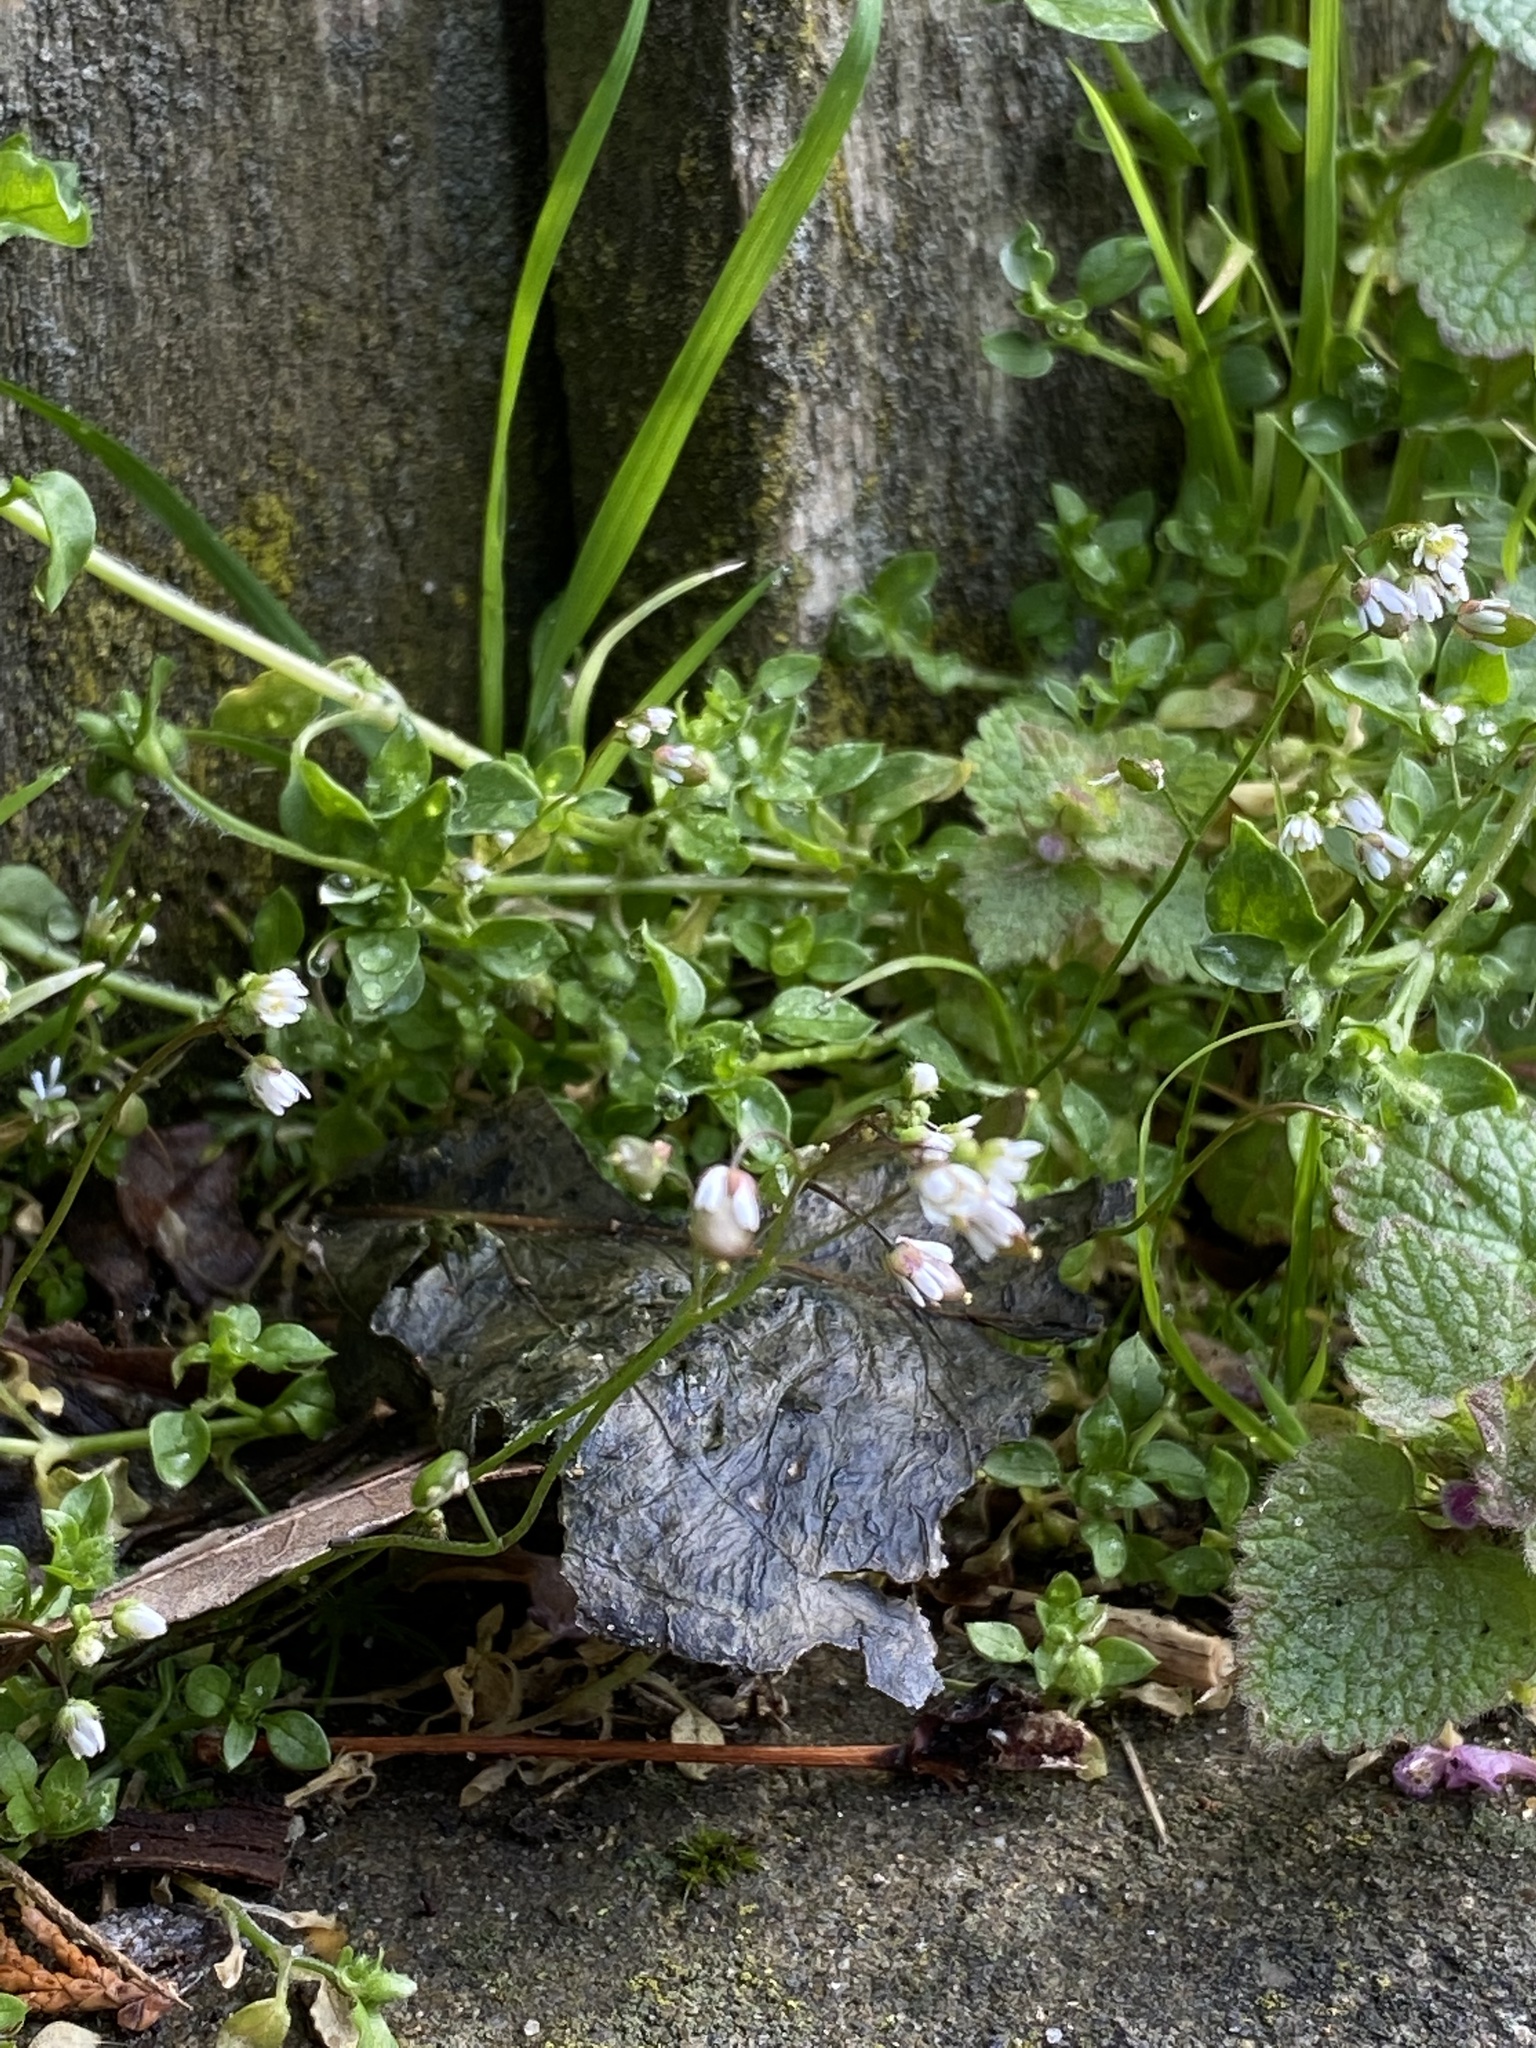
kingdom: Plantae
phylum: Tracheophyta
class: Magnoliopsida
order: Brassicales
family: Brassicaceae
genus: Draba
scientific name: Draba verna
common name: Spring draba
